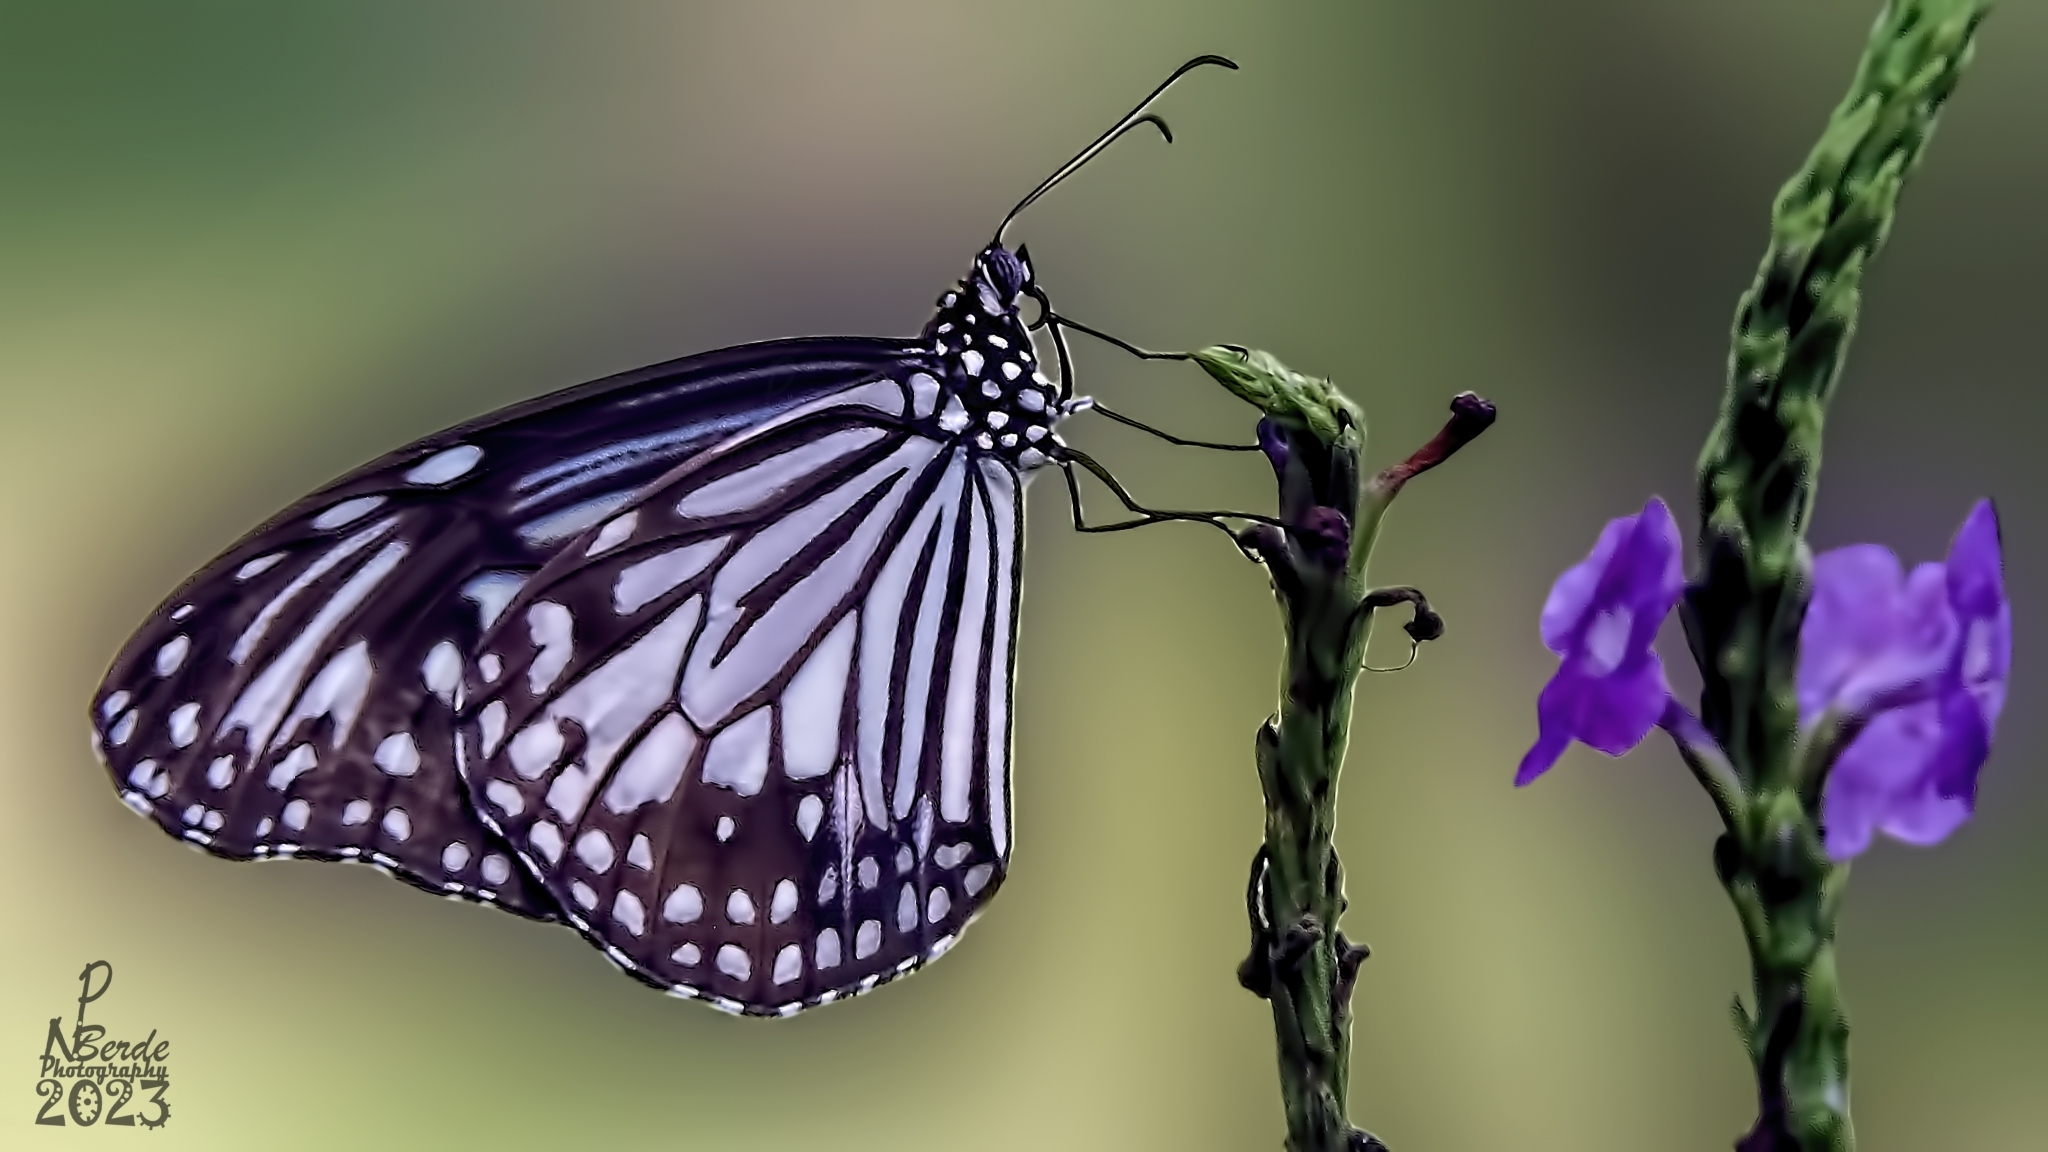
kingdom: Animalia
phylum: Arthropoda
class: Insecta
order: Lepidoptera
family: Nymphalidae
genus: Parantica
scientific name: Parantica aglea
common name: Glassy tiger
